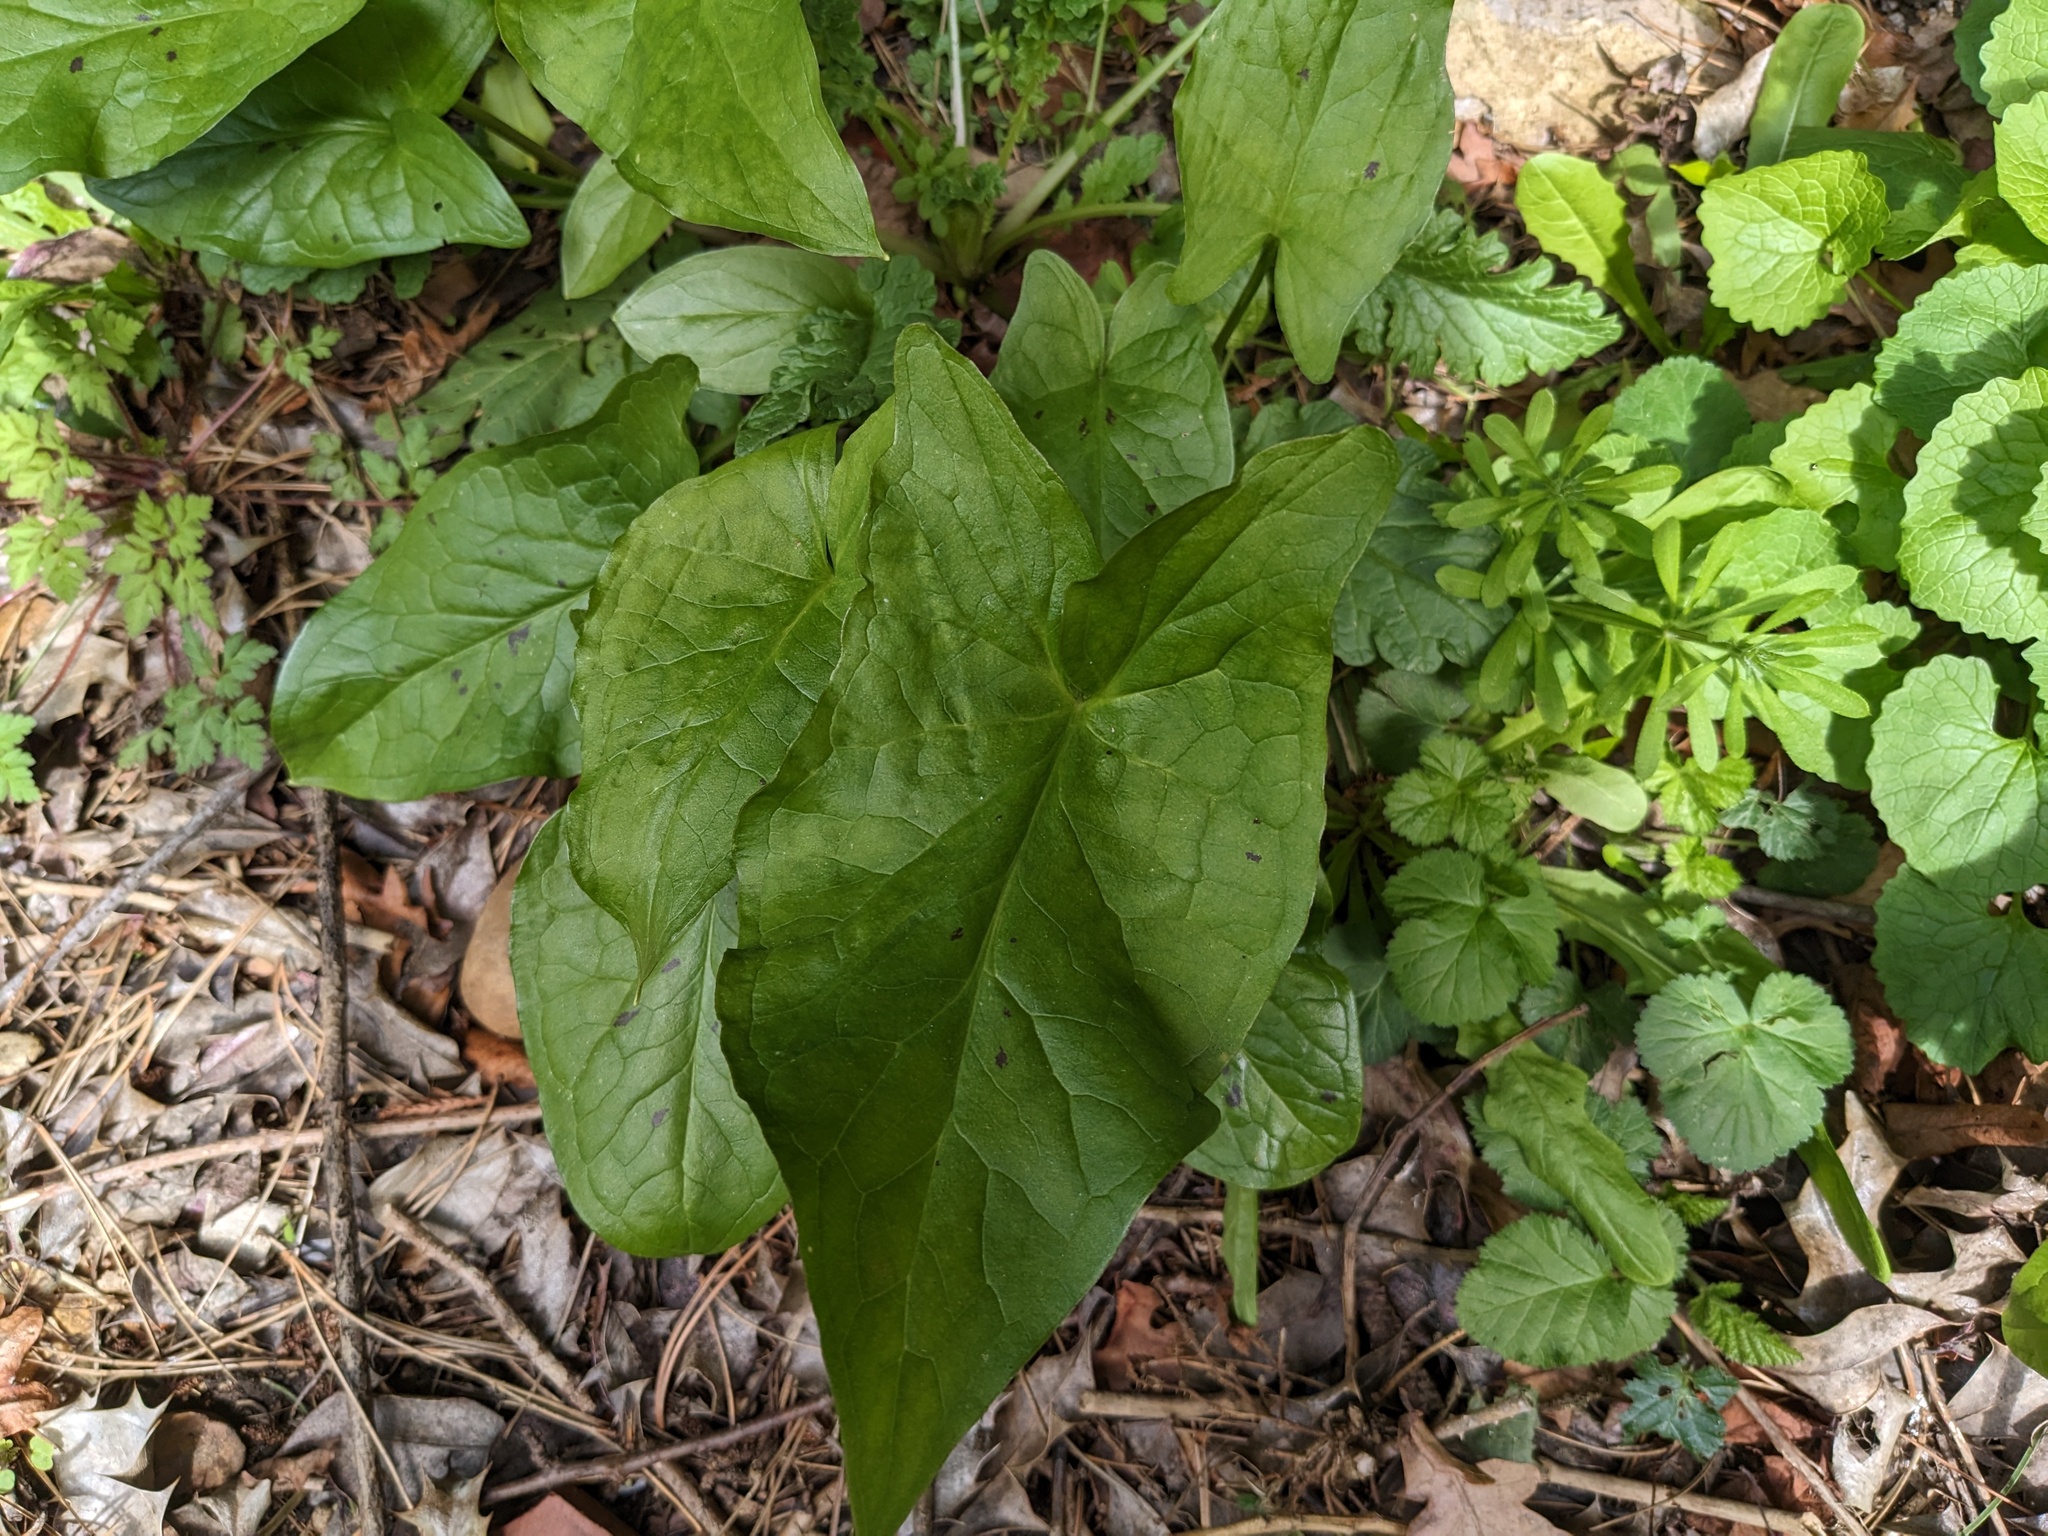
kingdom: Plantae
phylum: Tracheophyta
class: Liliopsida
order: Alismatales
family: Araceae
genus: Arum
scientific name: Arum maculatum
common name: Lords-and-ladies
